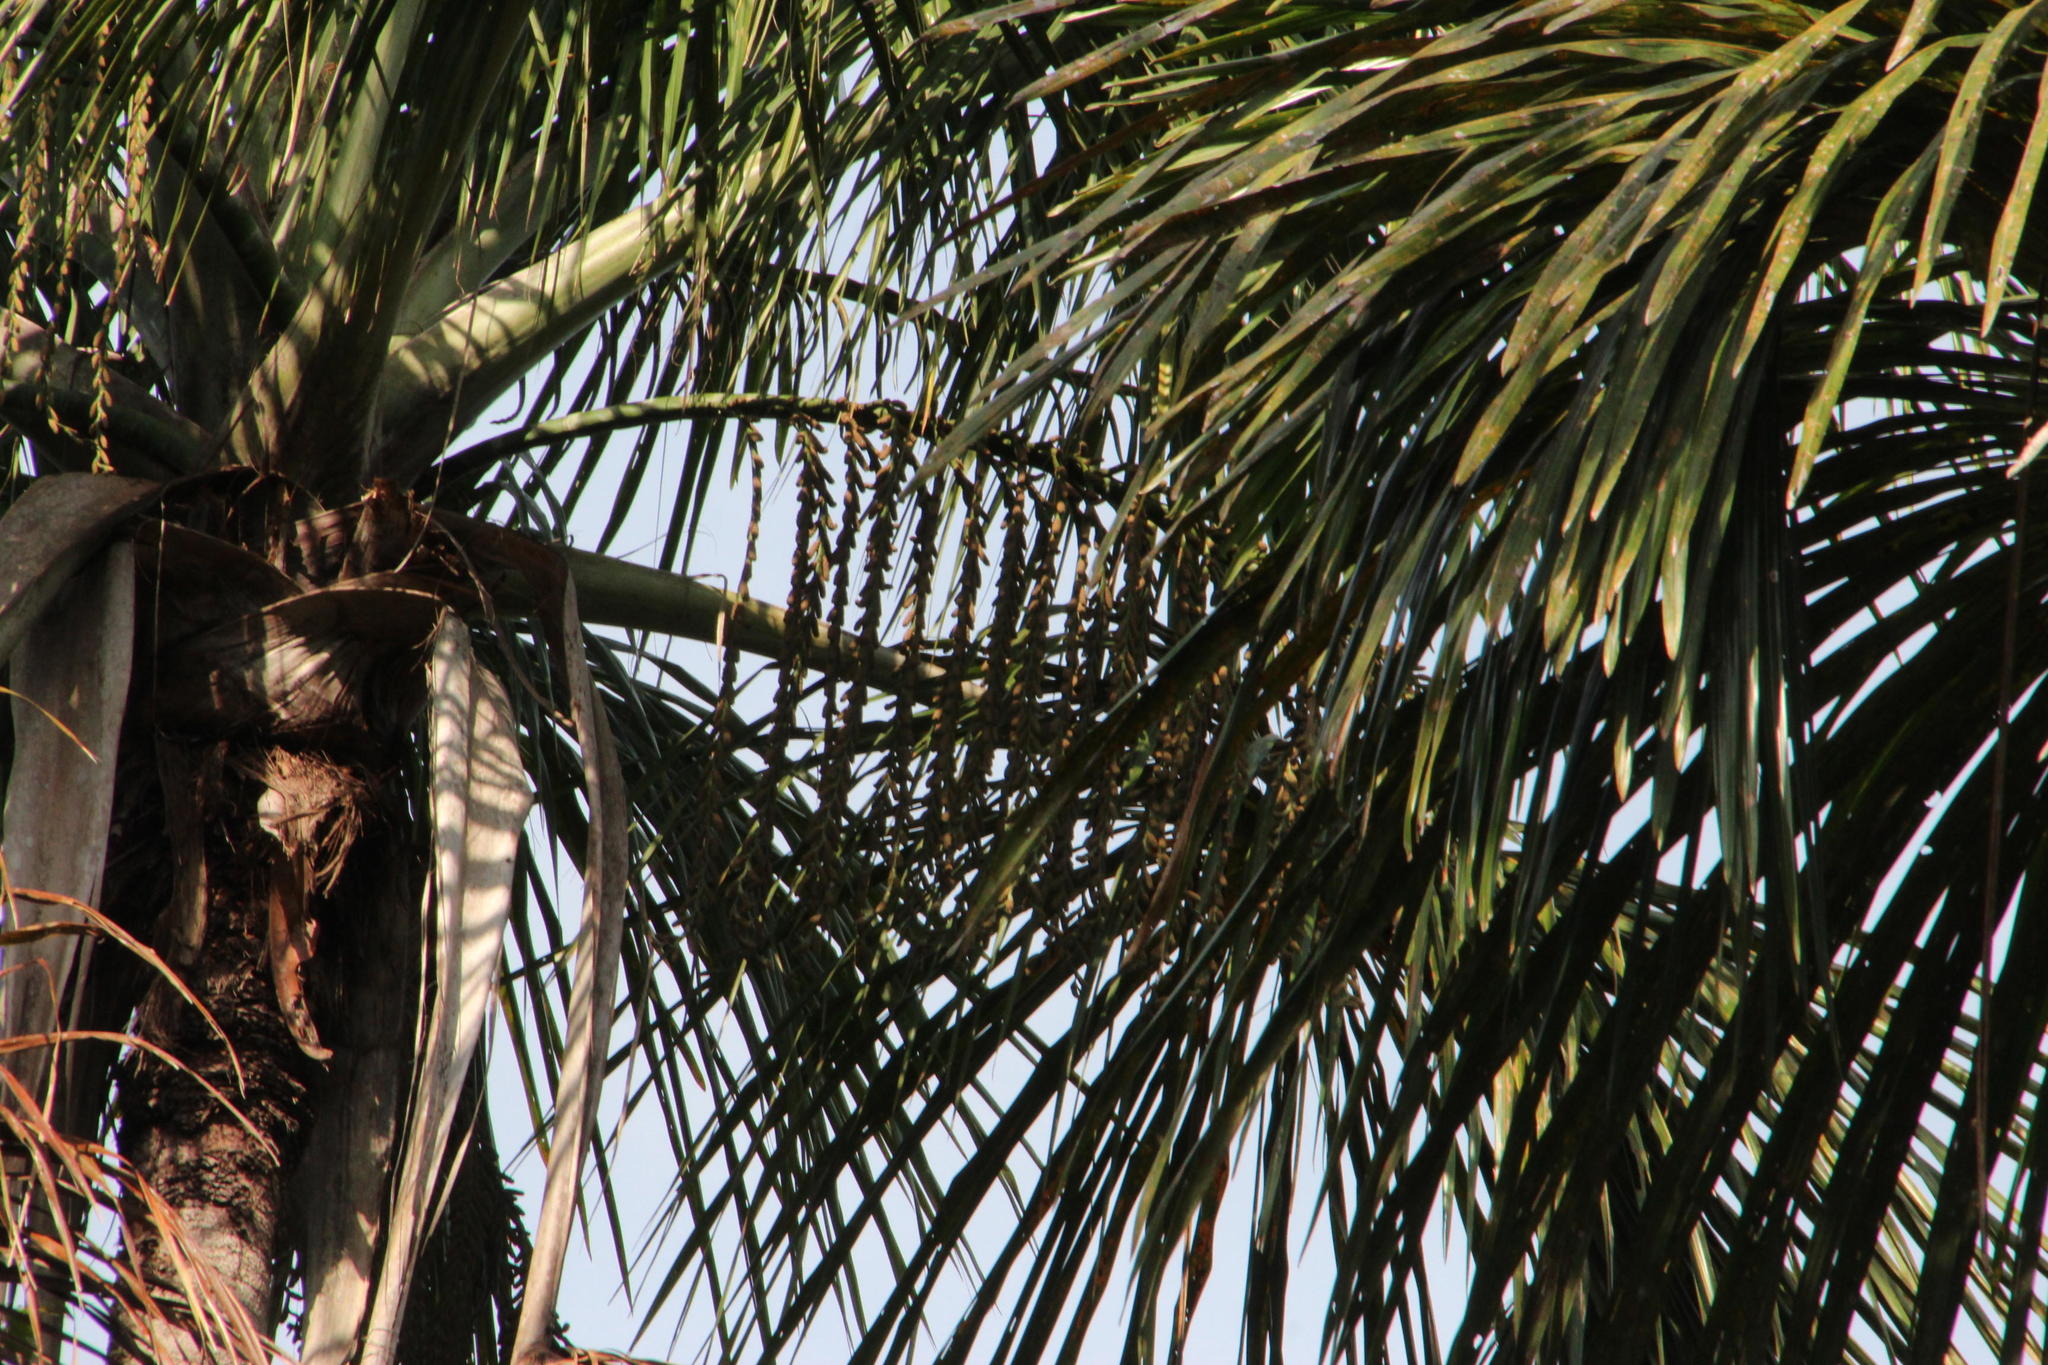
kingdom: Plantae
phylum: Tracheophyta
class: Liliopsida
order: Arecales
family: Arecaceae
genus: Mauritia
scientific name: Mauritia flexuosa
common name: Tree-of-life
